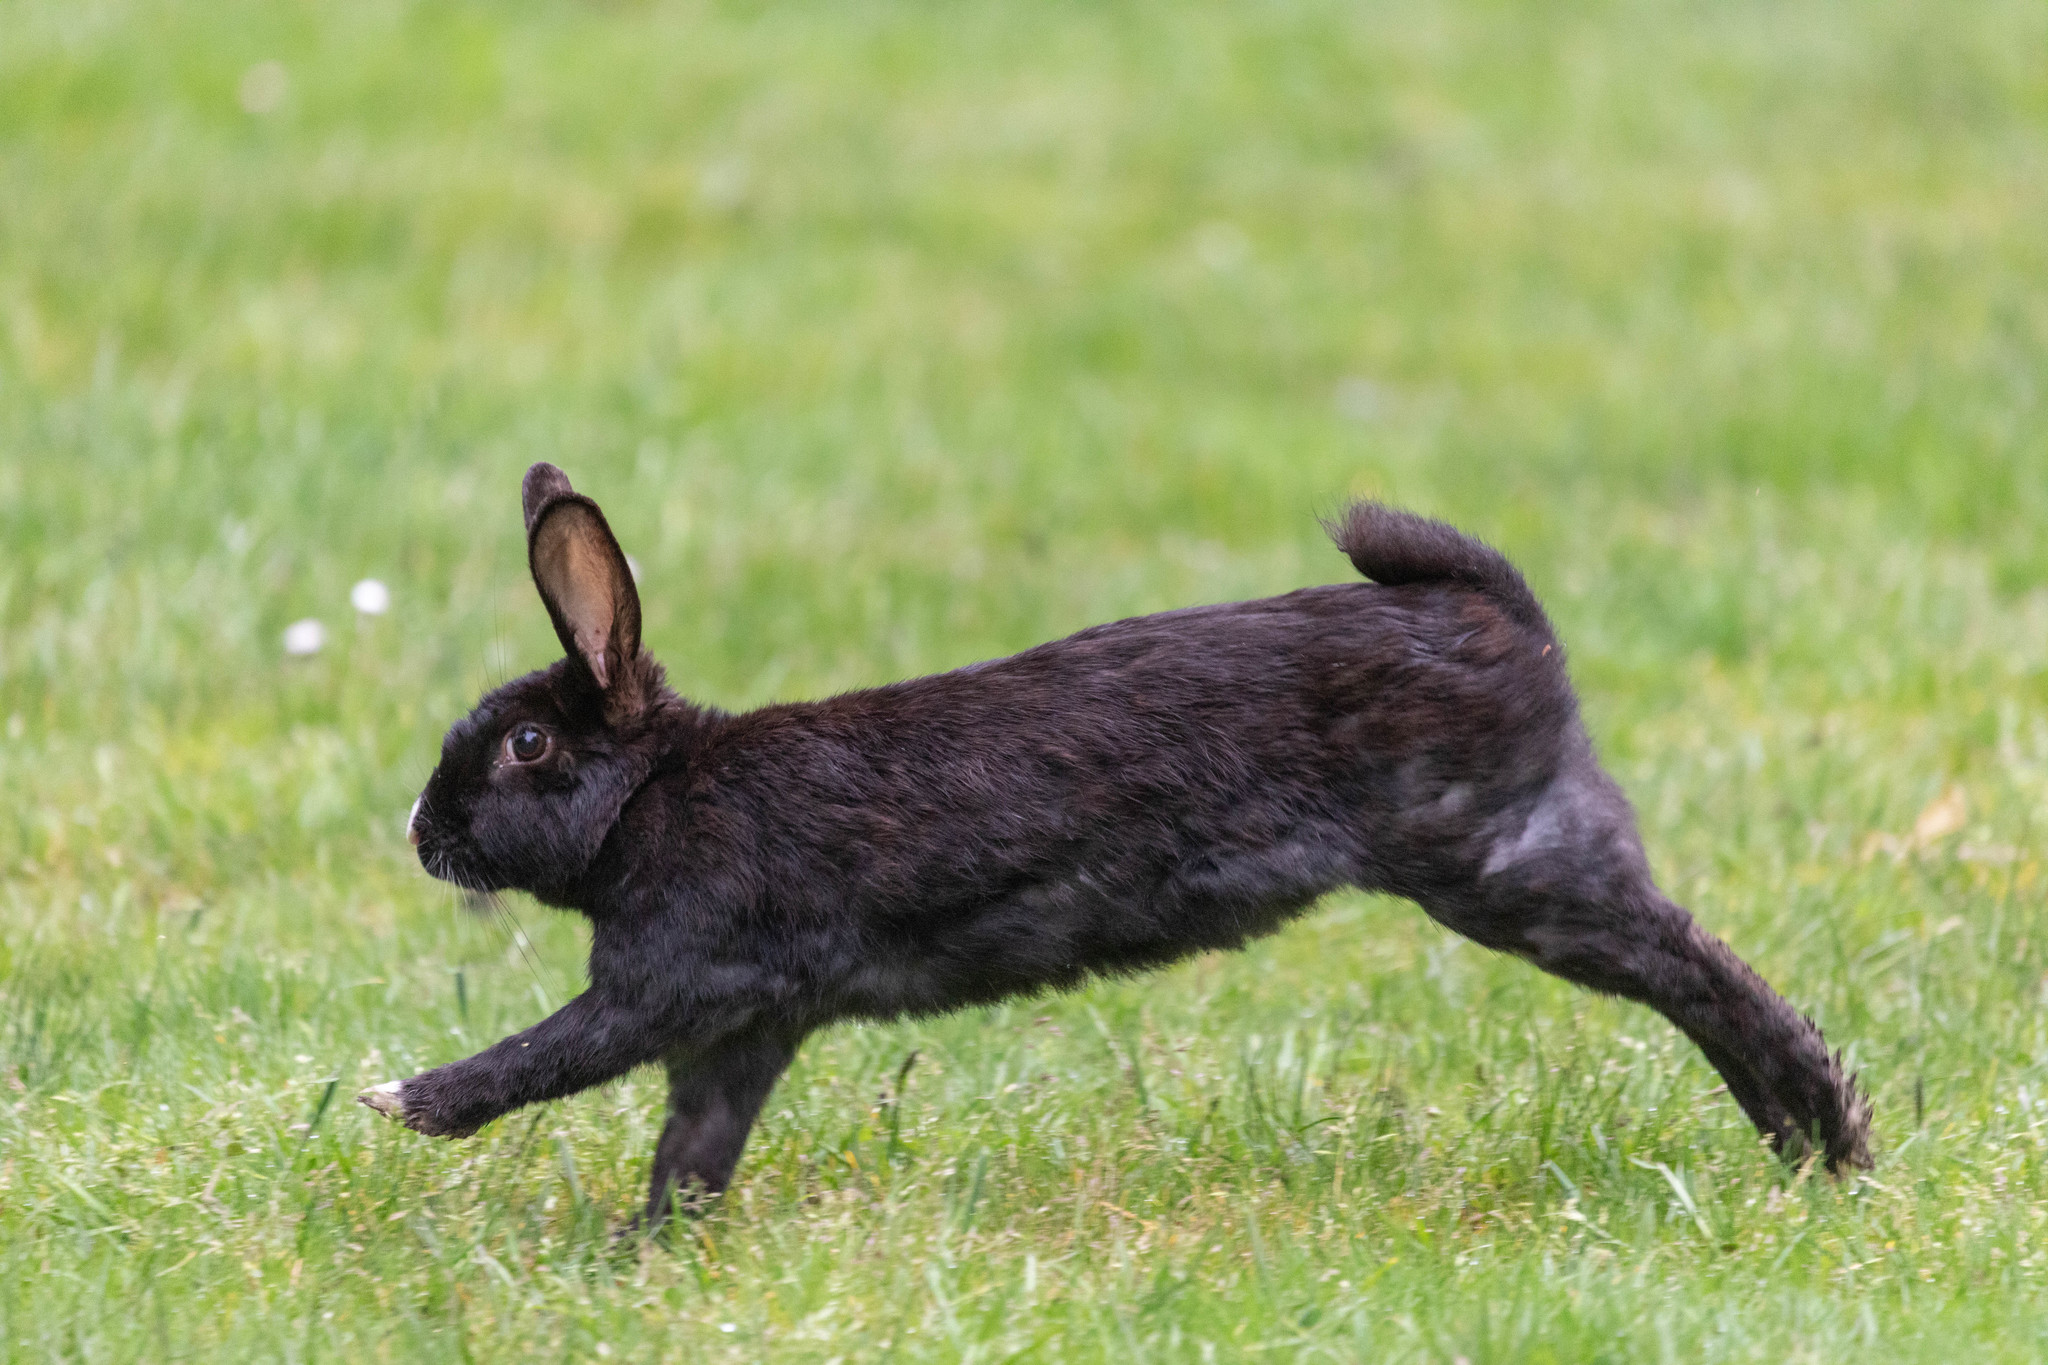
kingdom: Animalia
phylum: Chordata
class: Mammalia
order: Lagomorpha
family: Leporidae
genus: Oryctolagus
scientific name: Oryctolagus cuniculus
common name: European rabbit
